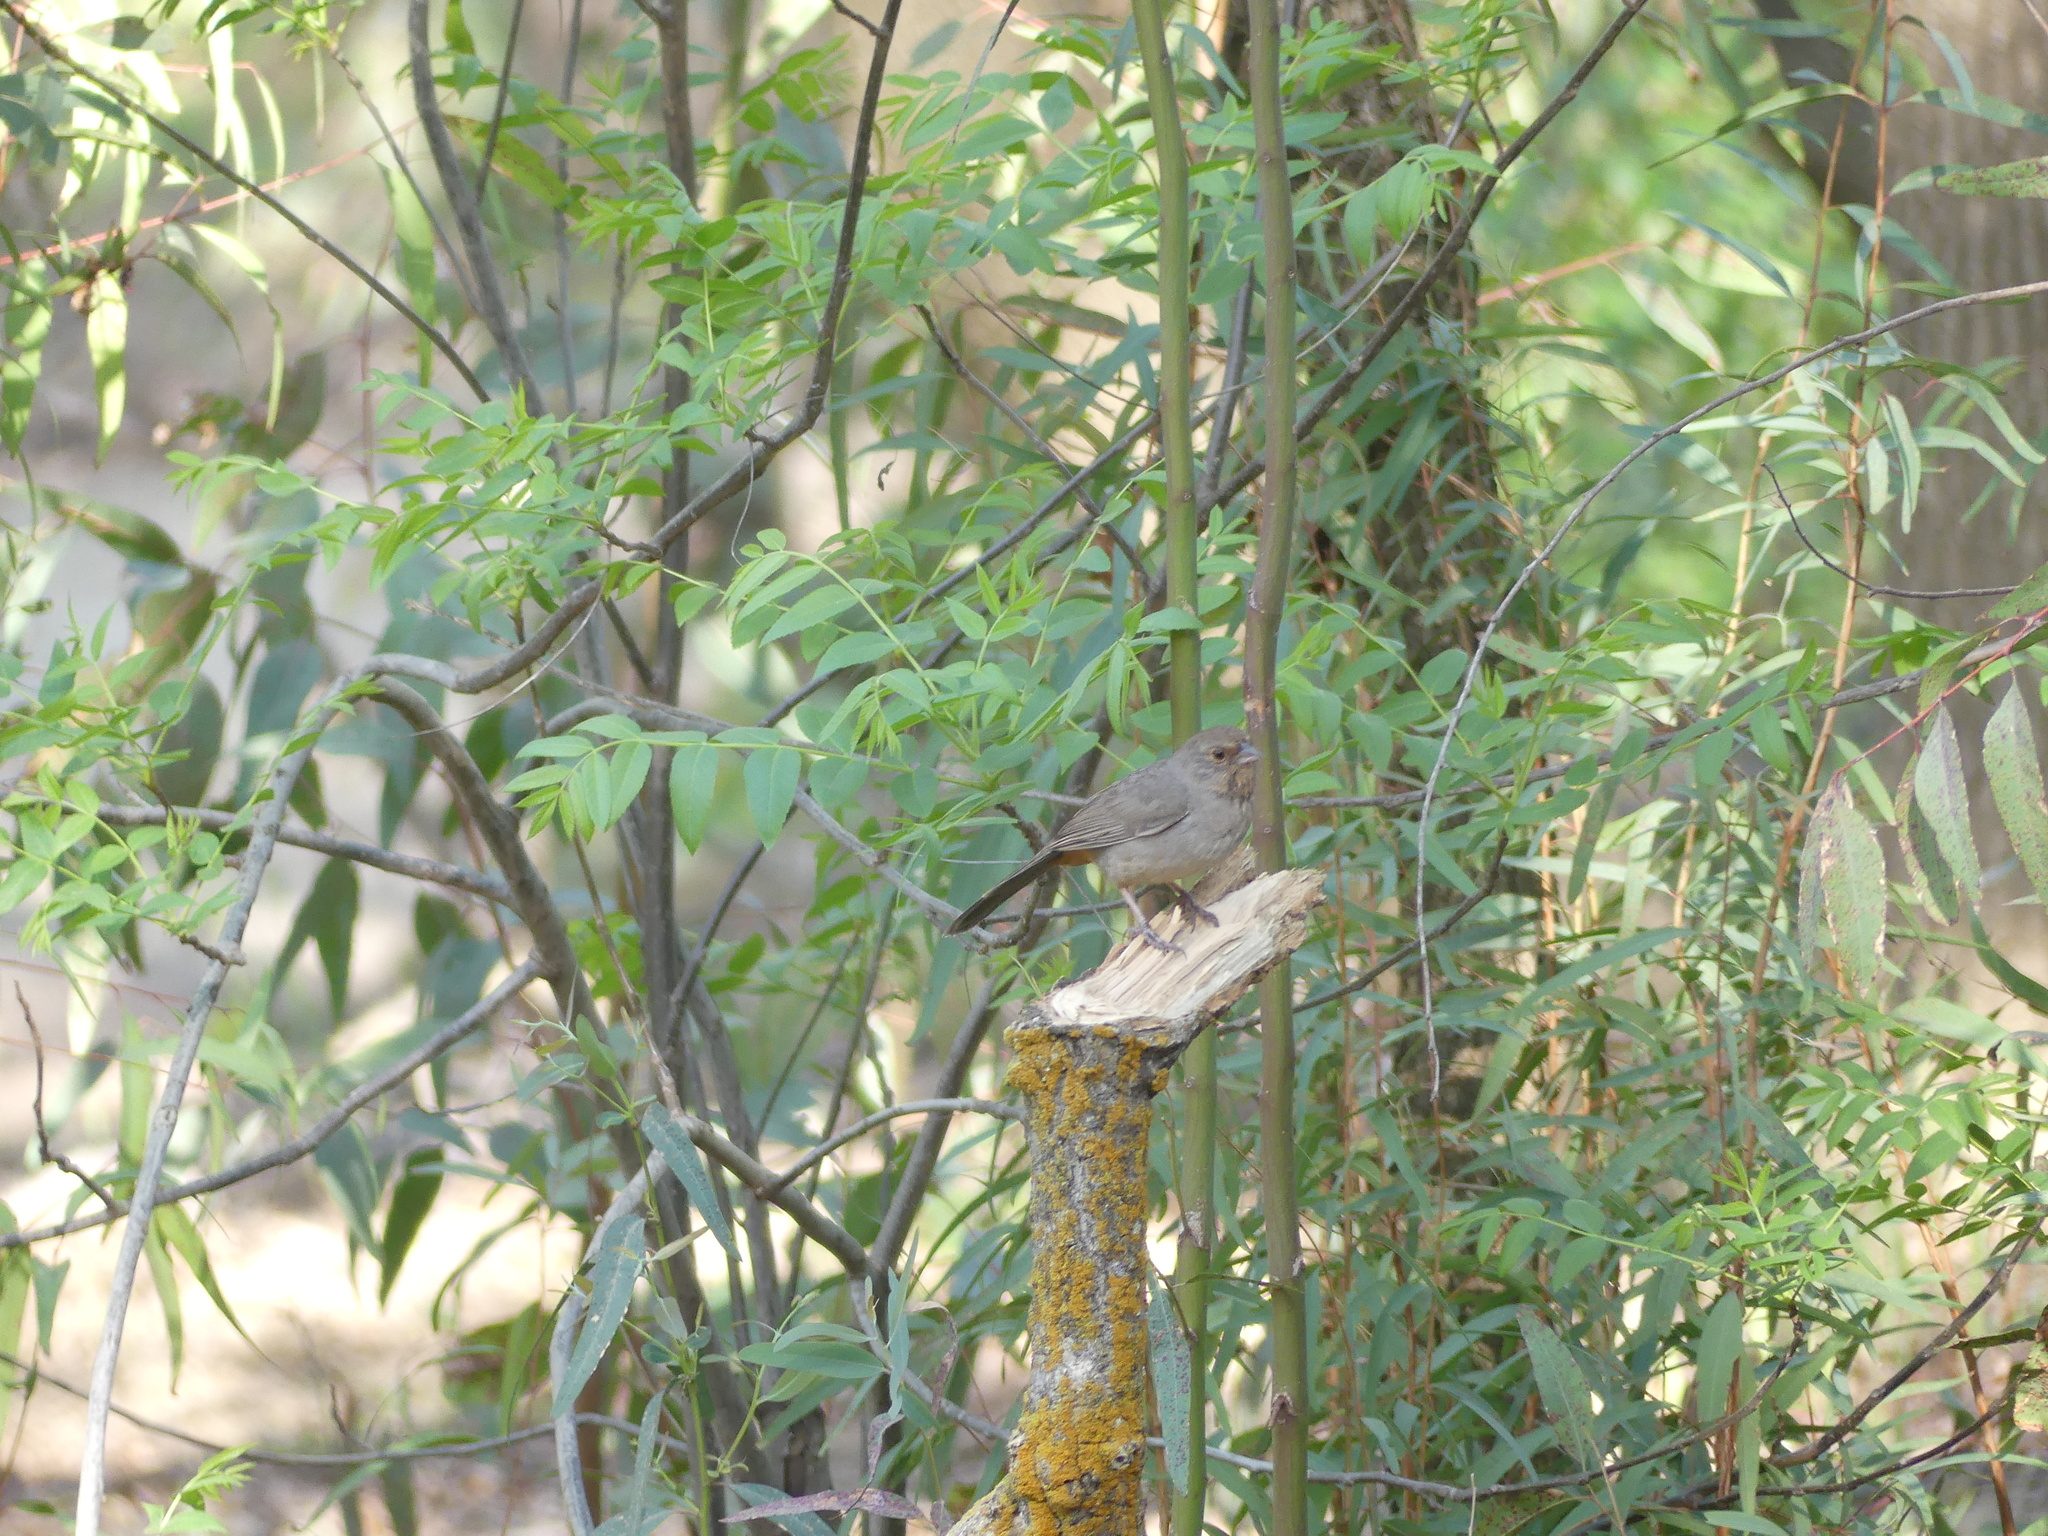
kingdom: Animalia
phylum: Chordata
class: Aves
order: Passeriformes
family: Passerellidae
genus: Melozone
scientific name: Melozone crissalis
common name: California towhee
